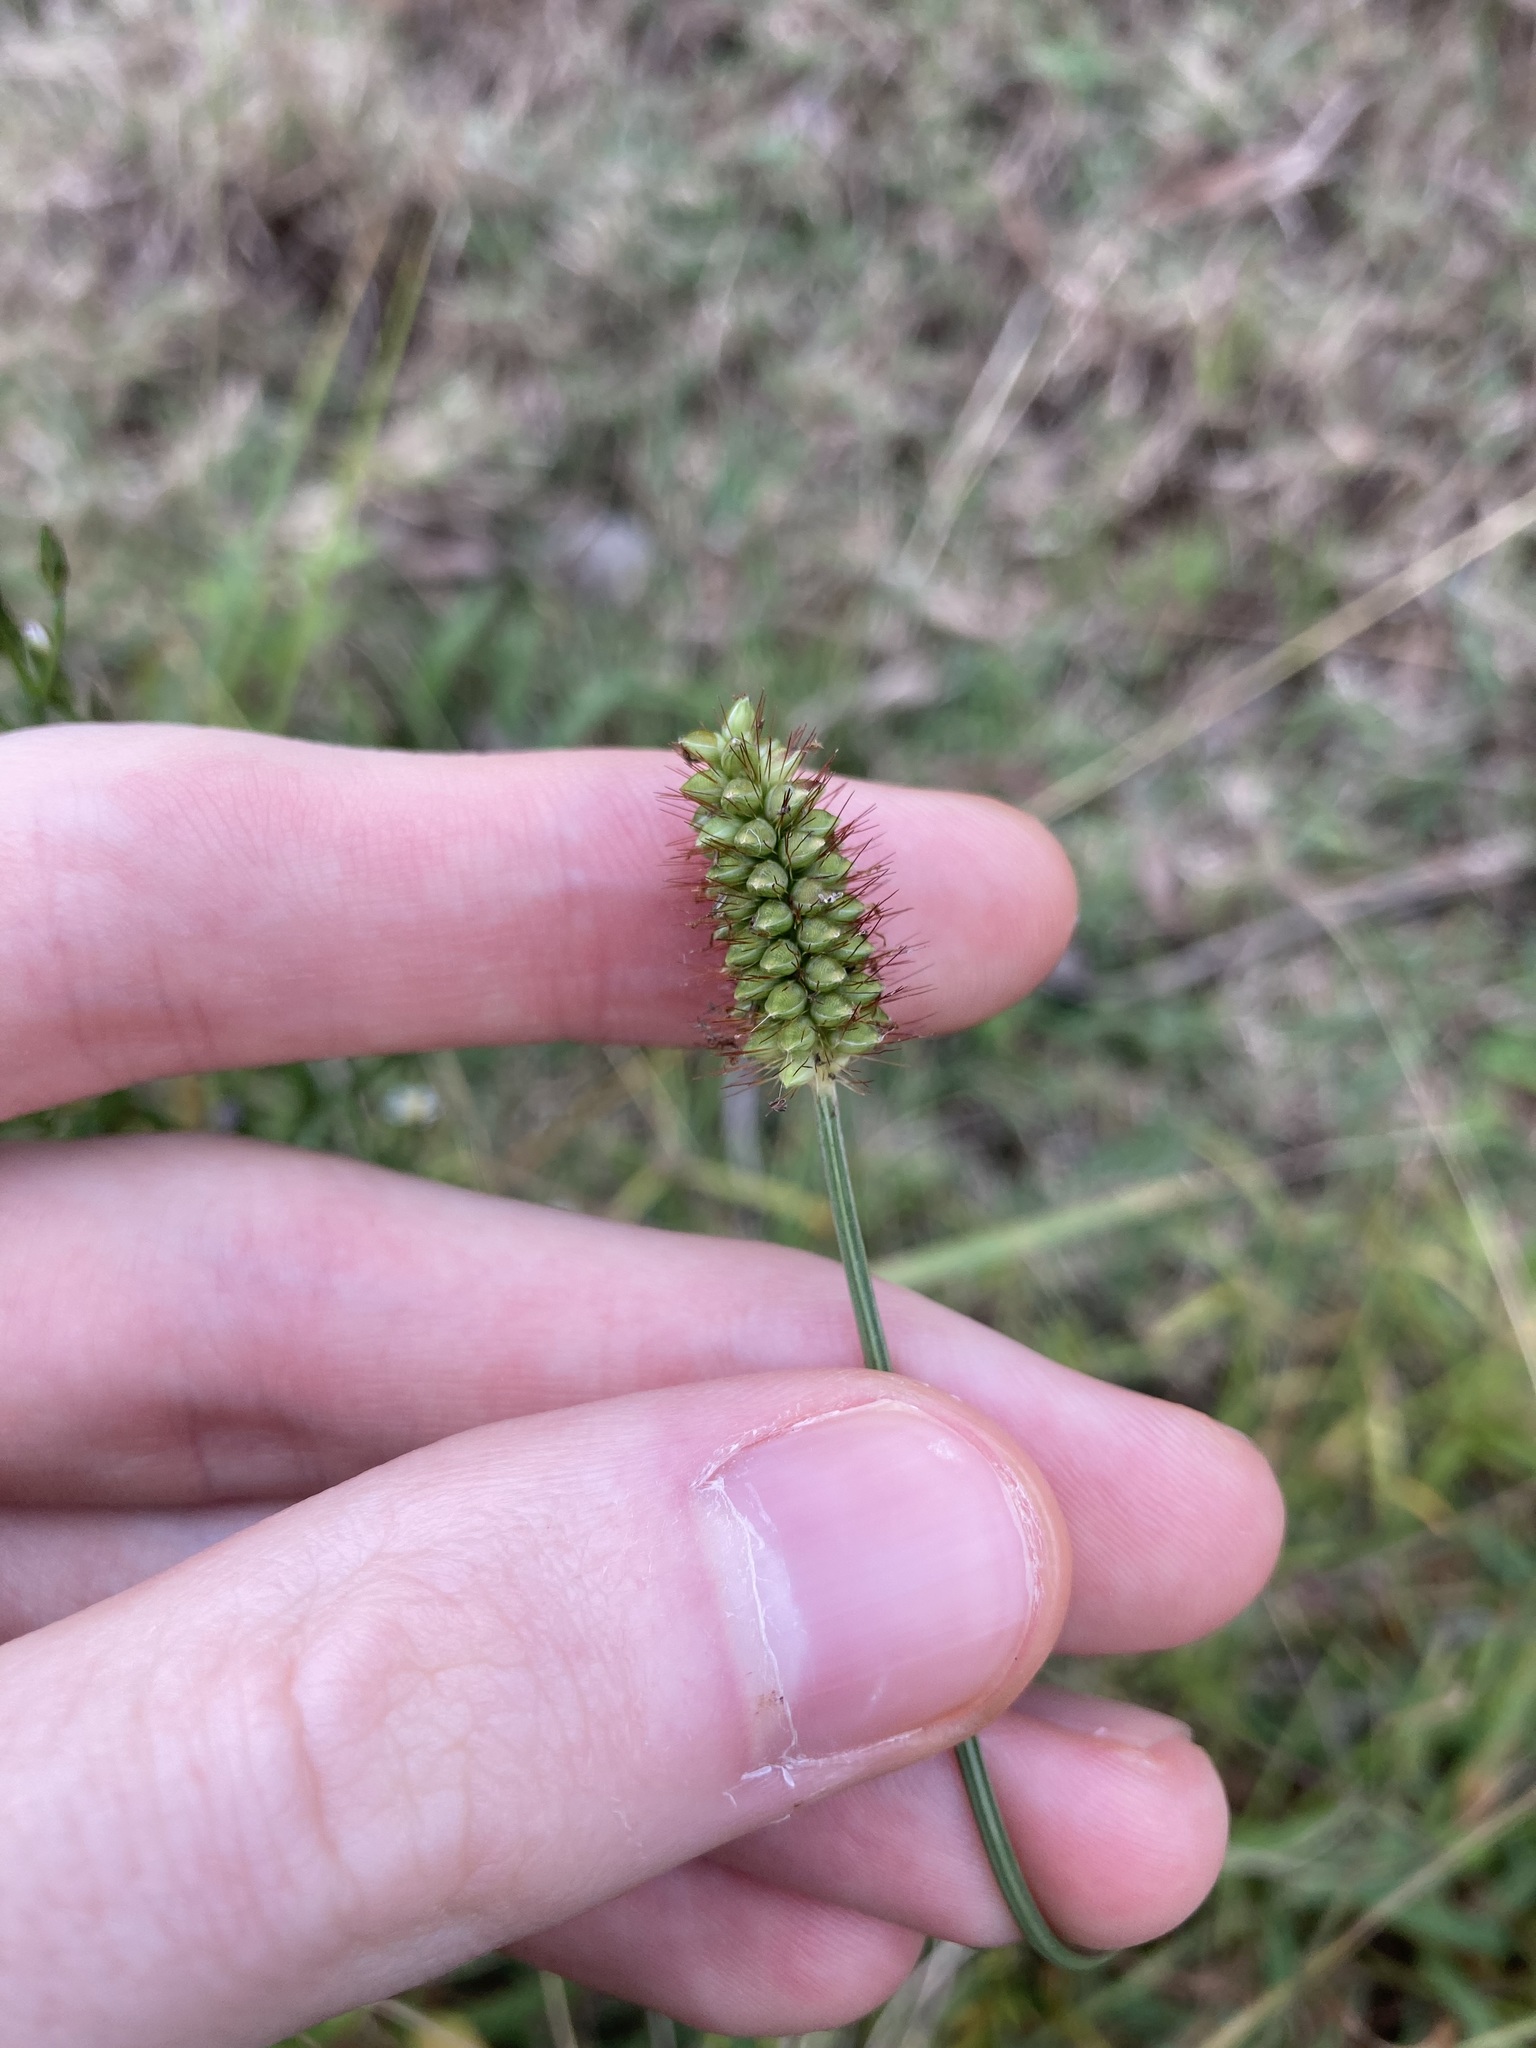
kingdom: Plantae
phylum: Tracheophyta
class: Liliopsida
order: Poales
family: Poaceae
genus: Setaria
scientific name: Setaria surgens
